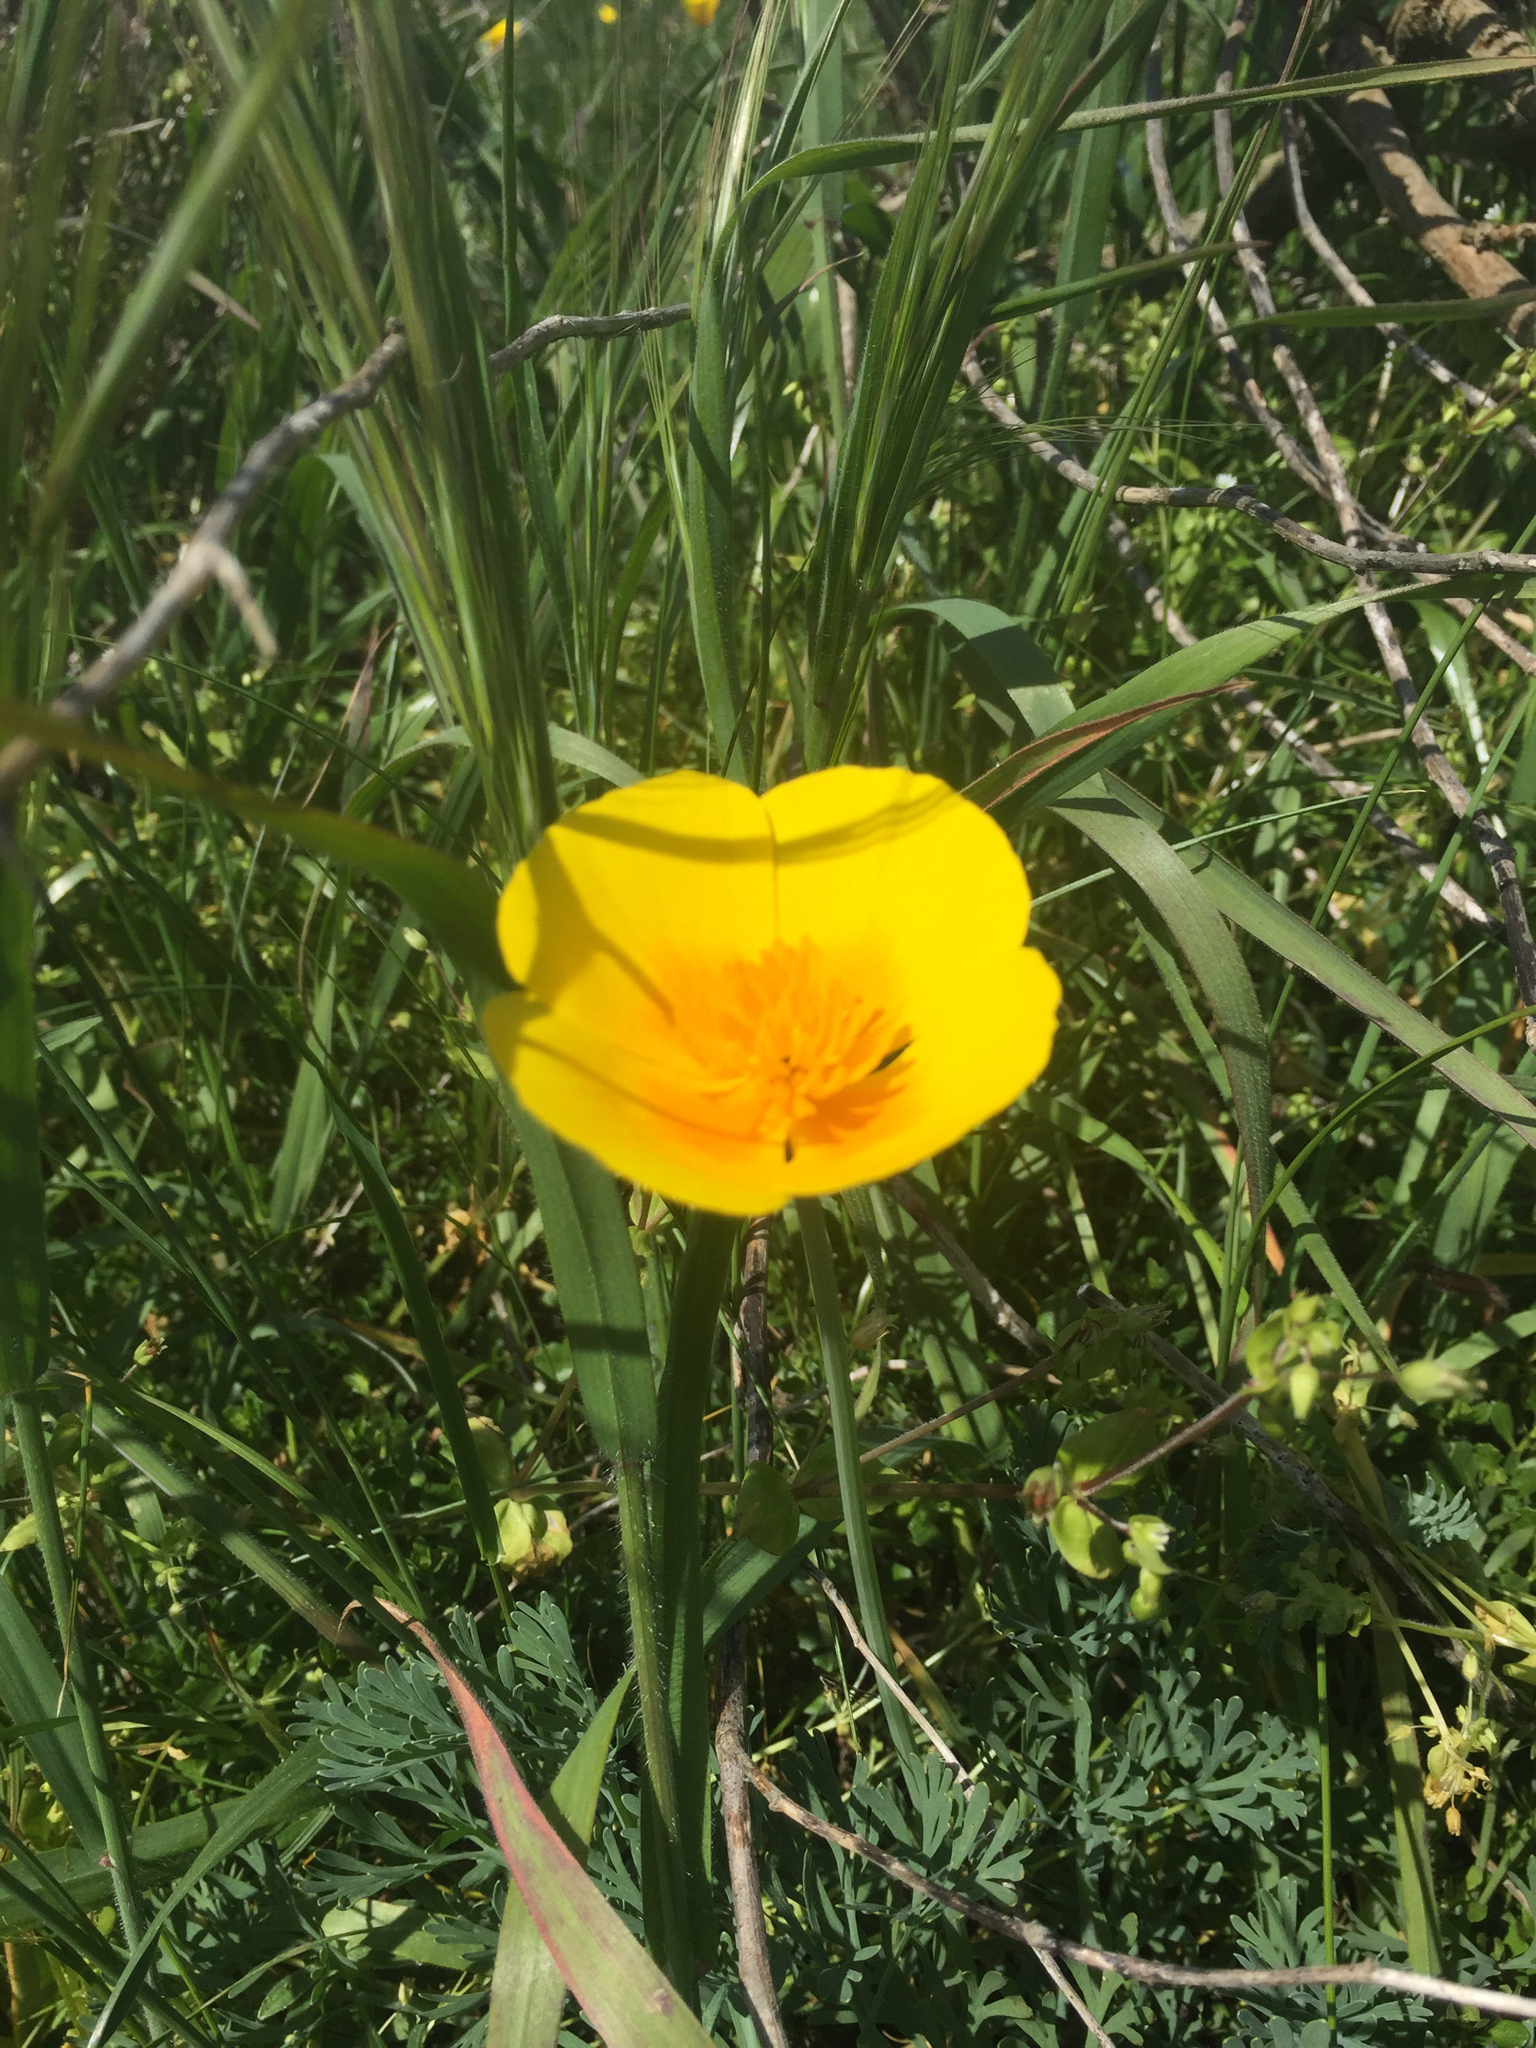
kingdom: Plantae
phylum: Tracheophyta
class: Magnoliopsida
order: Ranunculales
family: Papaveraceae
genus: Eschscholzia
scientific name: Eschscholzia californica
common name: California poppy
